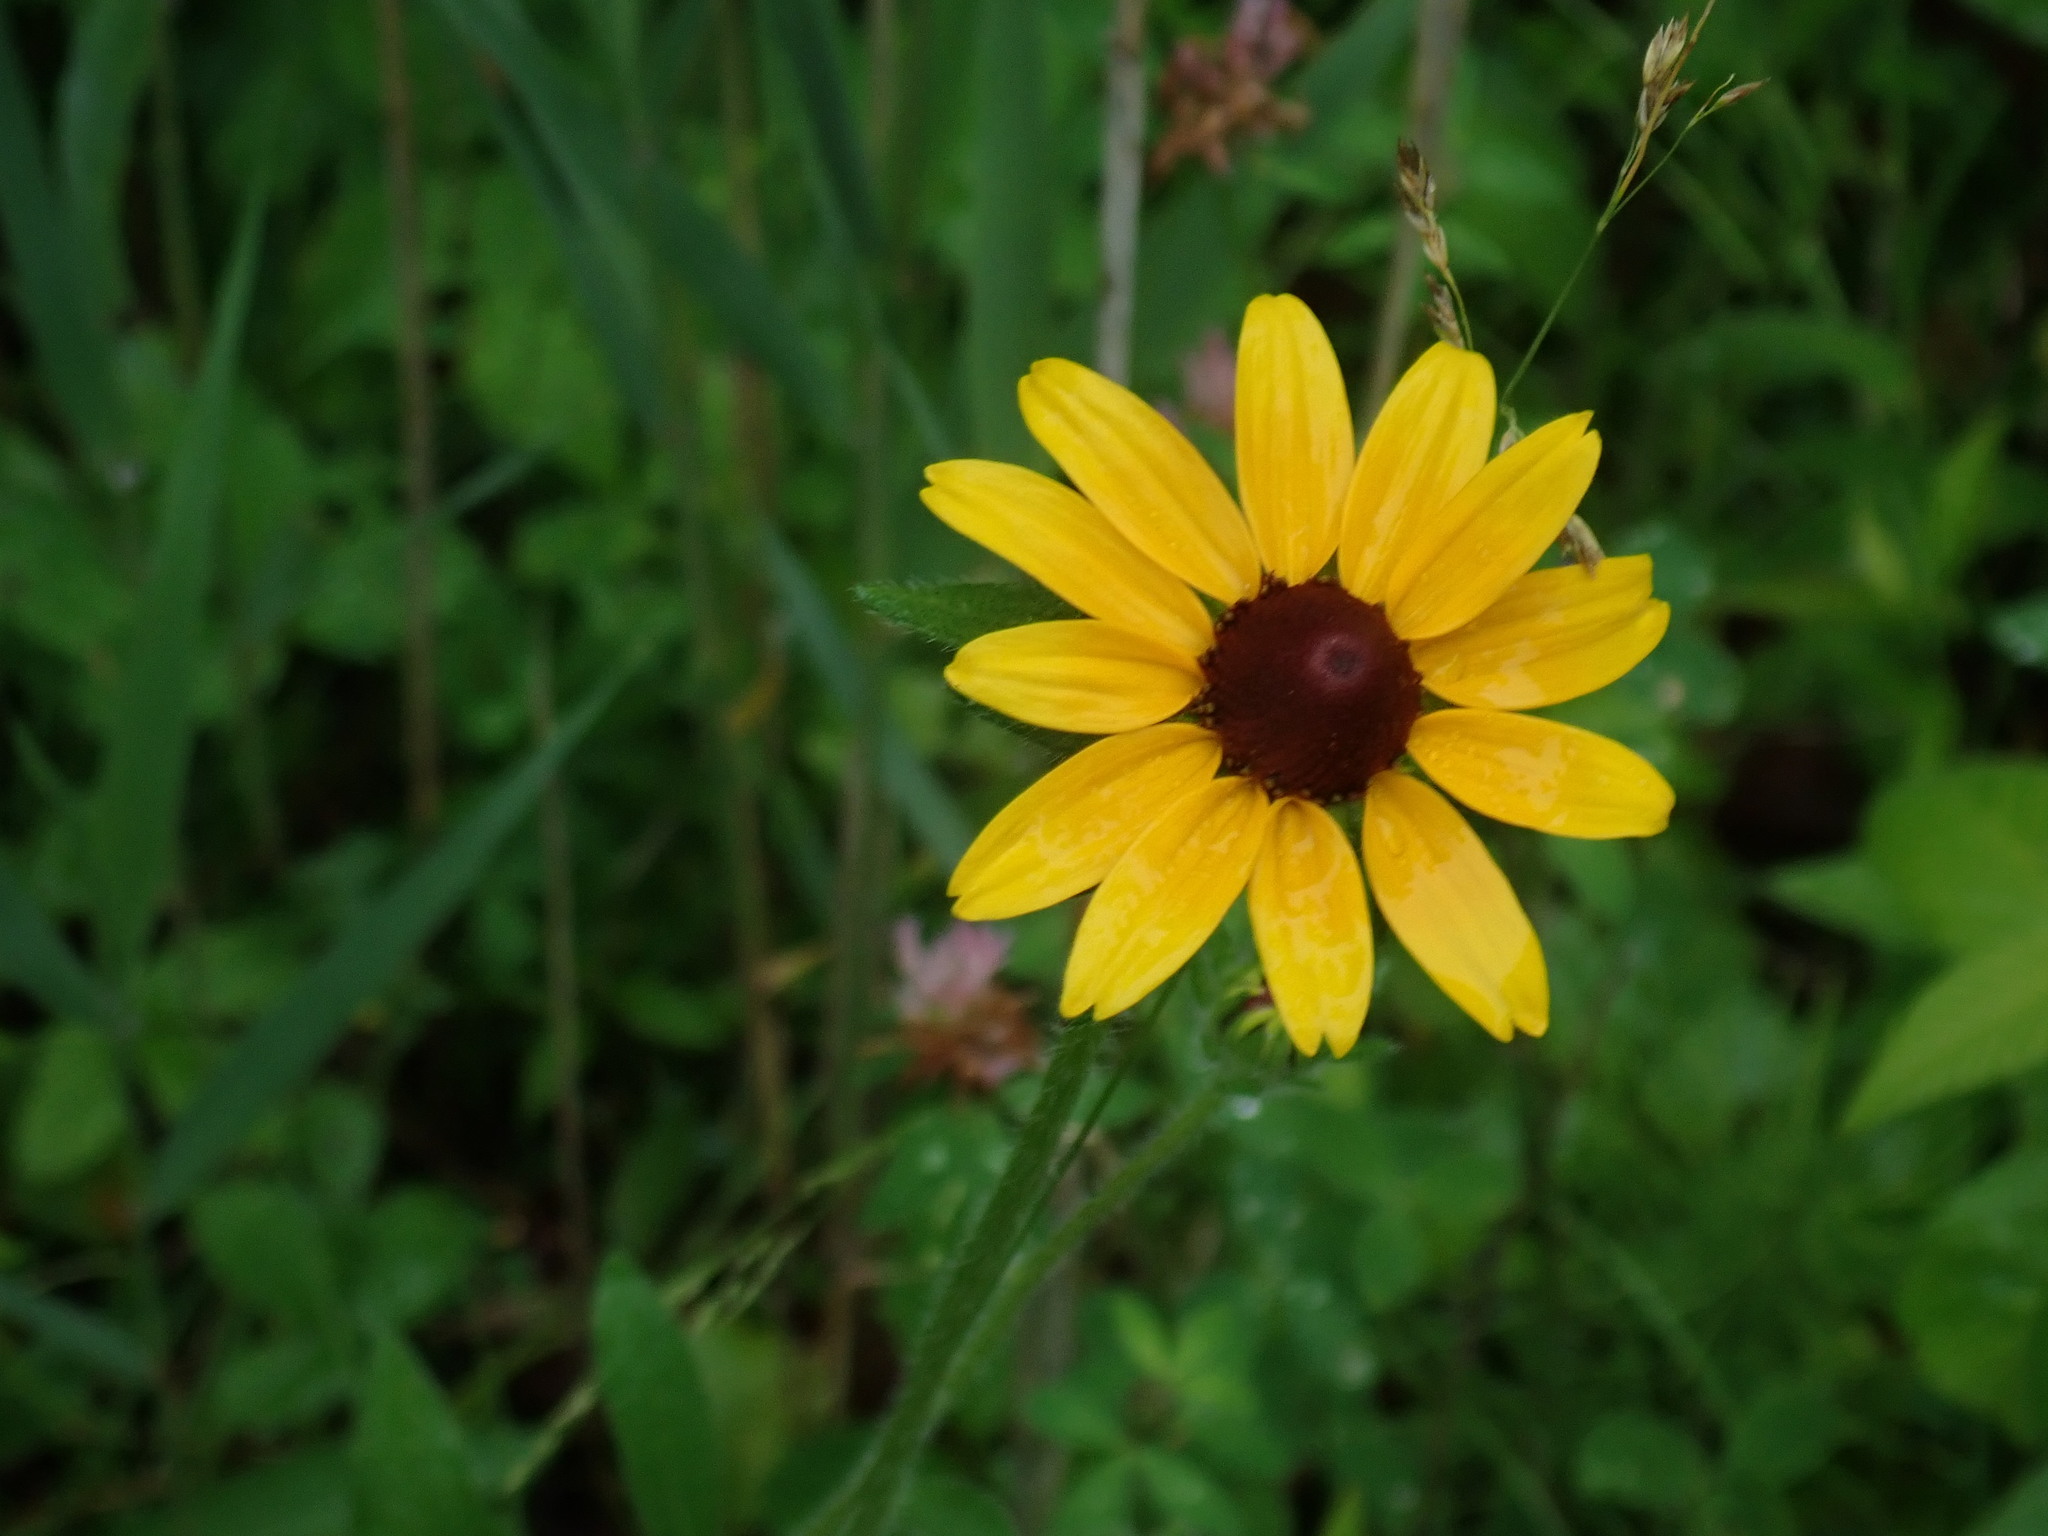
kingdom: Plantae
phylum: Tracheophyta
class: Magnoliopsida
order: Asterales
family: Asteraceae
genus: Rudbeckia
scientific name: Rudbeckia hirta
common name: Black-eyed-susan
